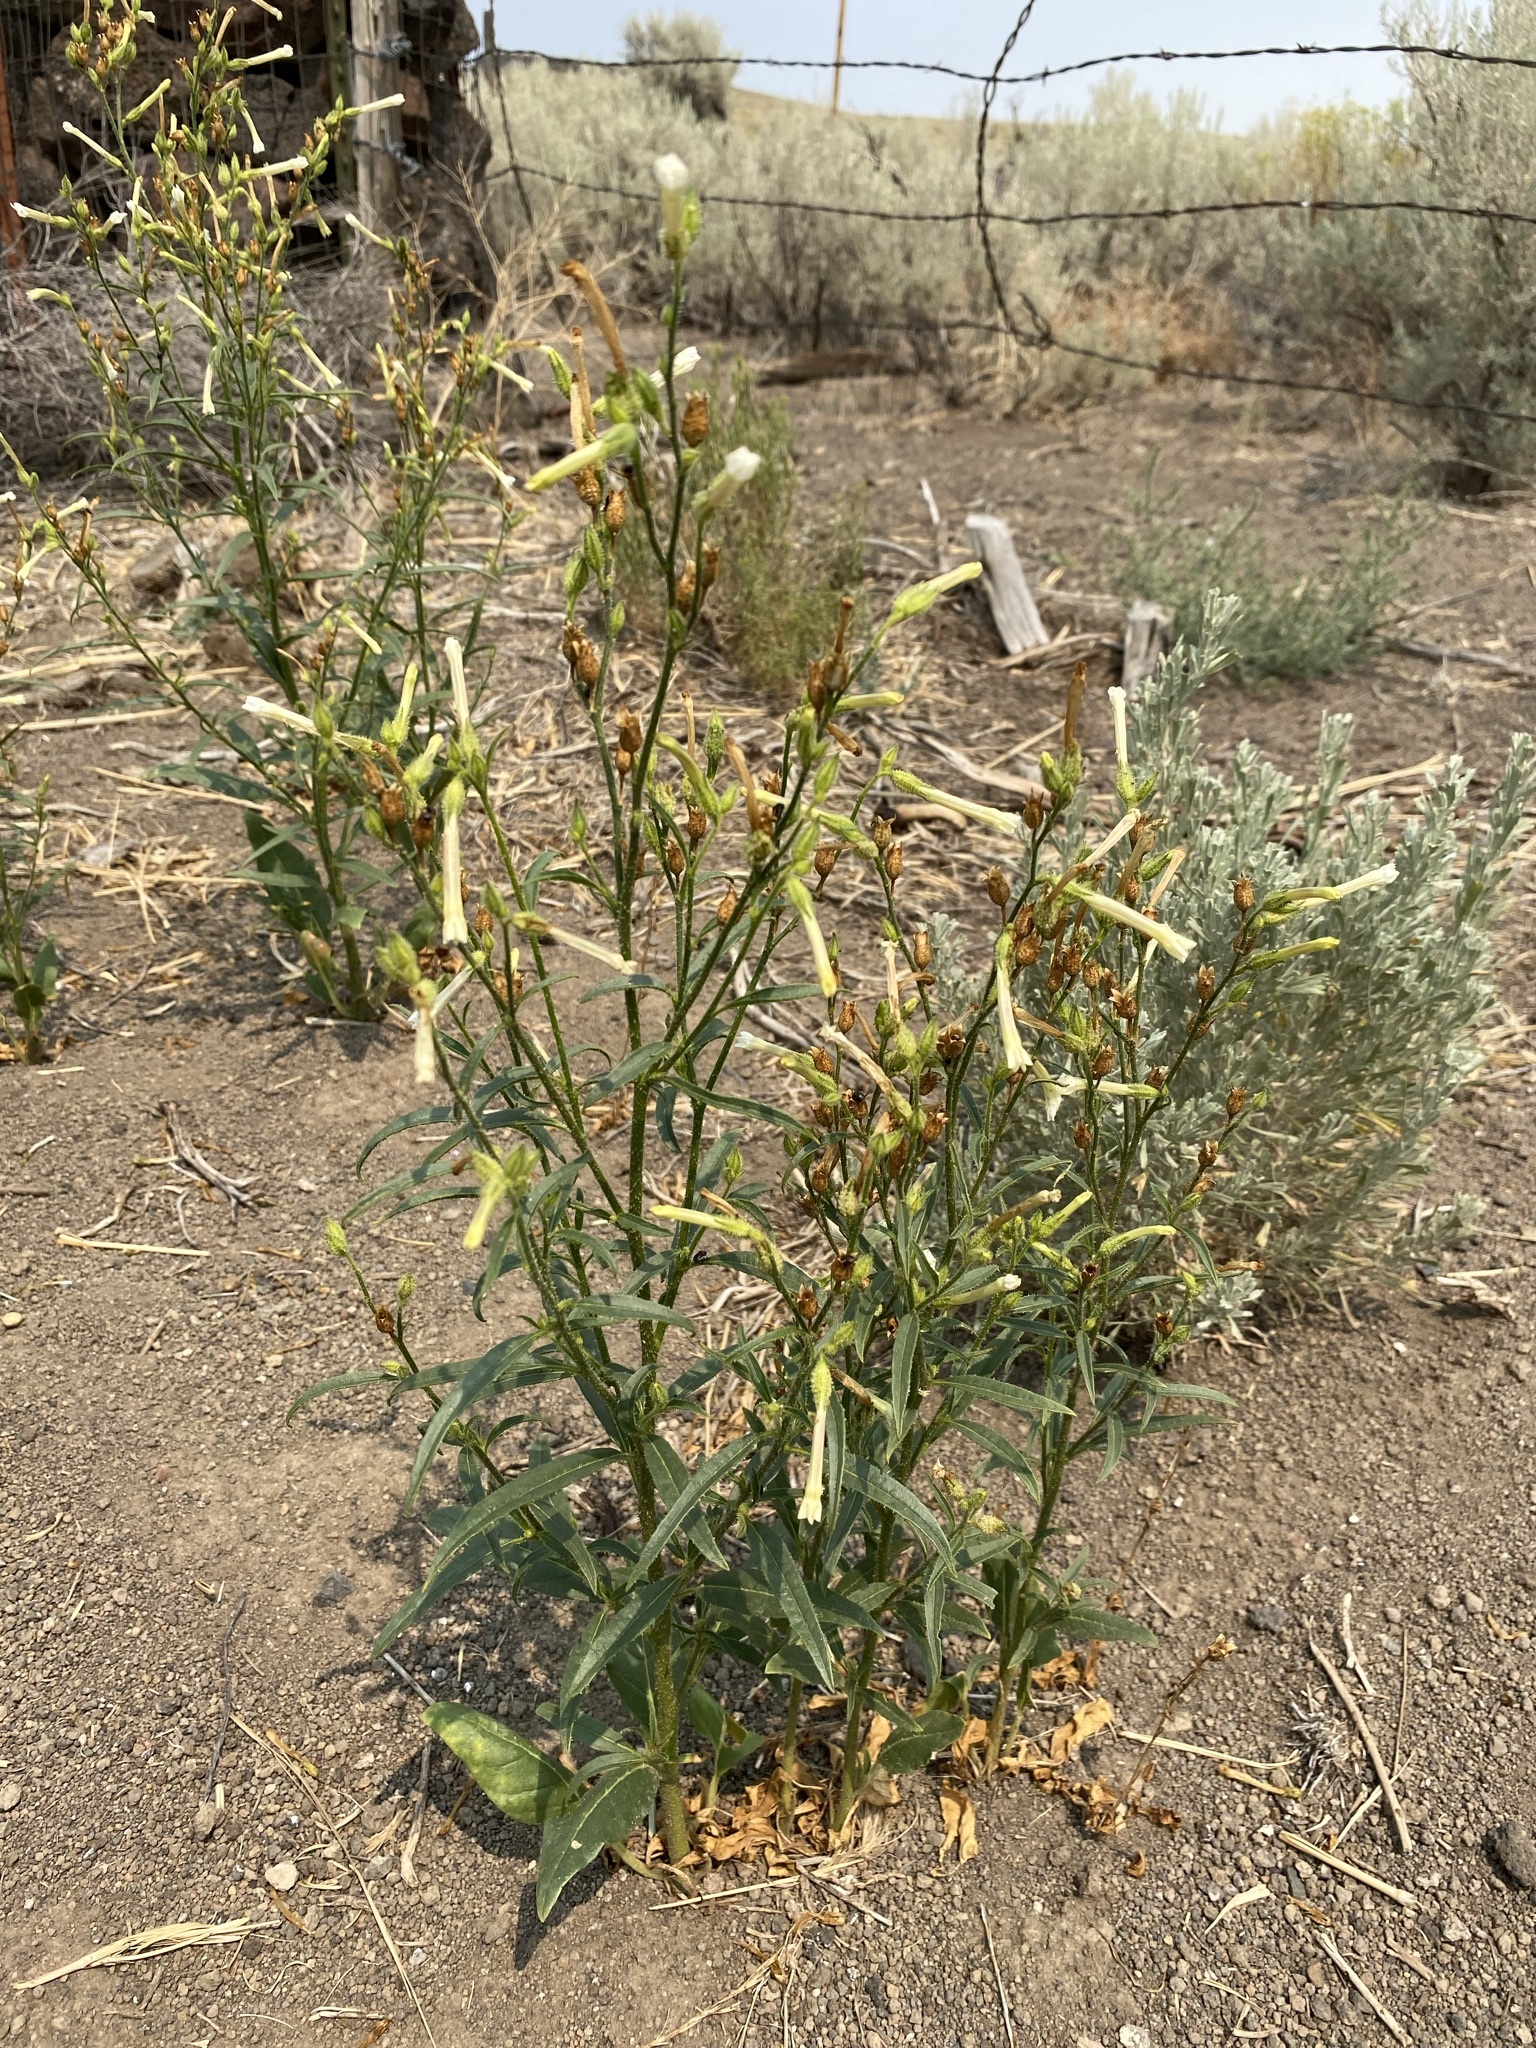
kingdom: Plantae
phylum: Tracheophyta
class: Magnoliopsida
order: Solanales
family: Solanaceae
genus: Nicotiana
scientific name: Nicotiana attenuata
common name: Coyote tobacco
